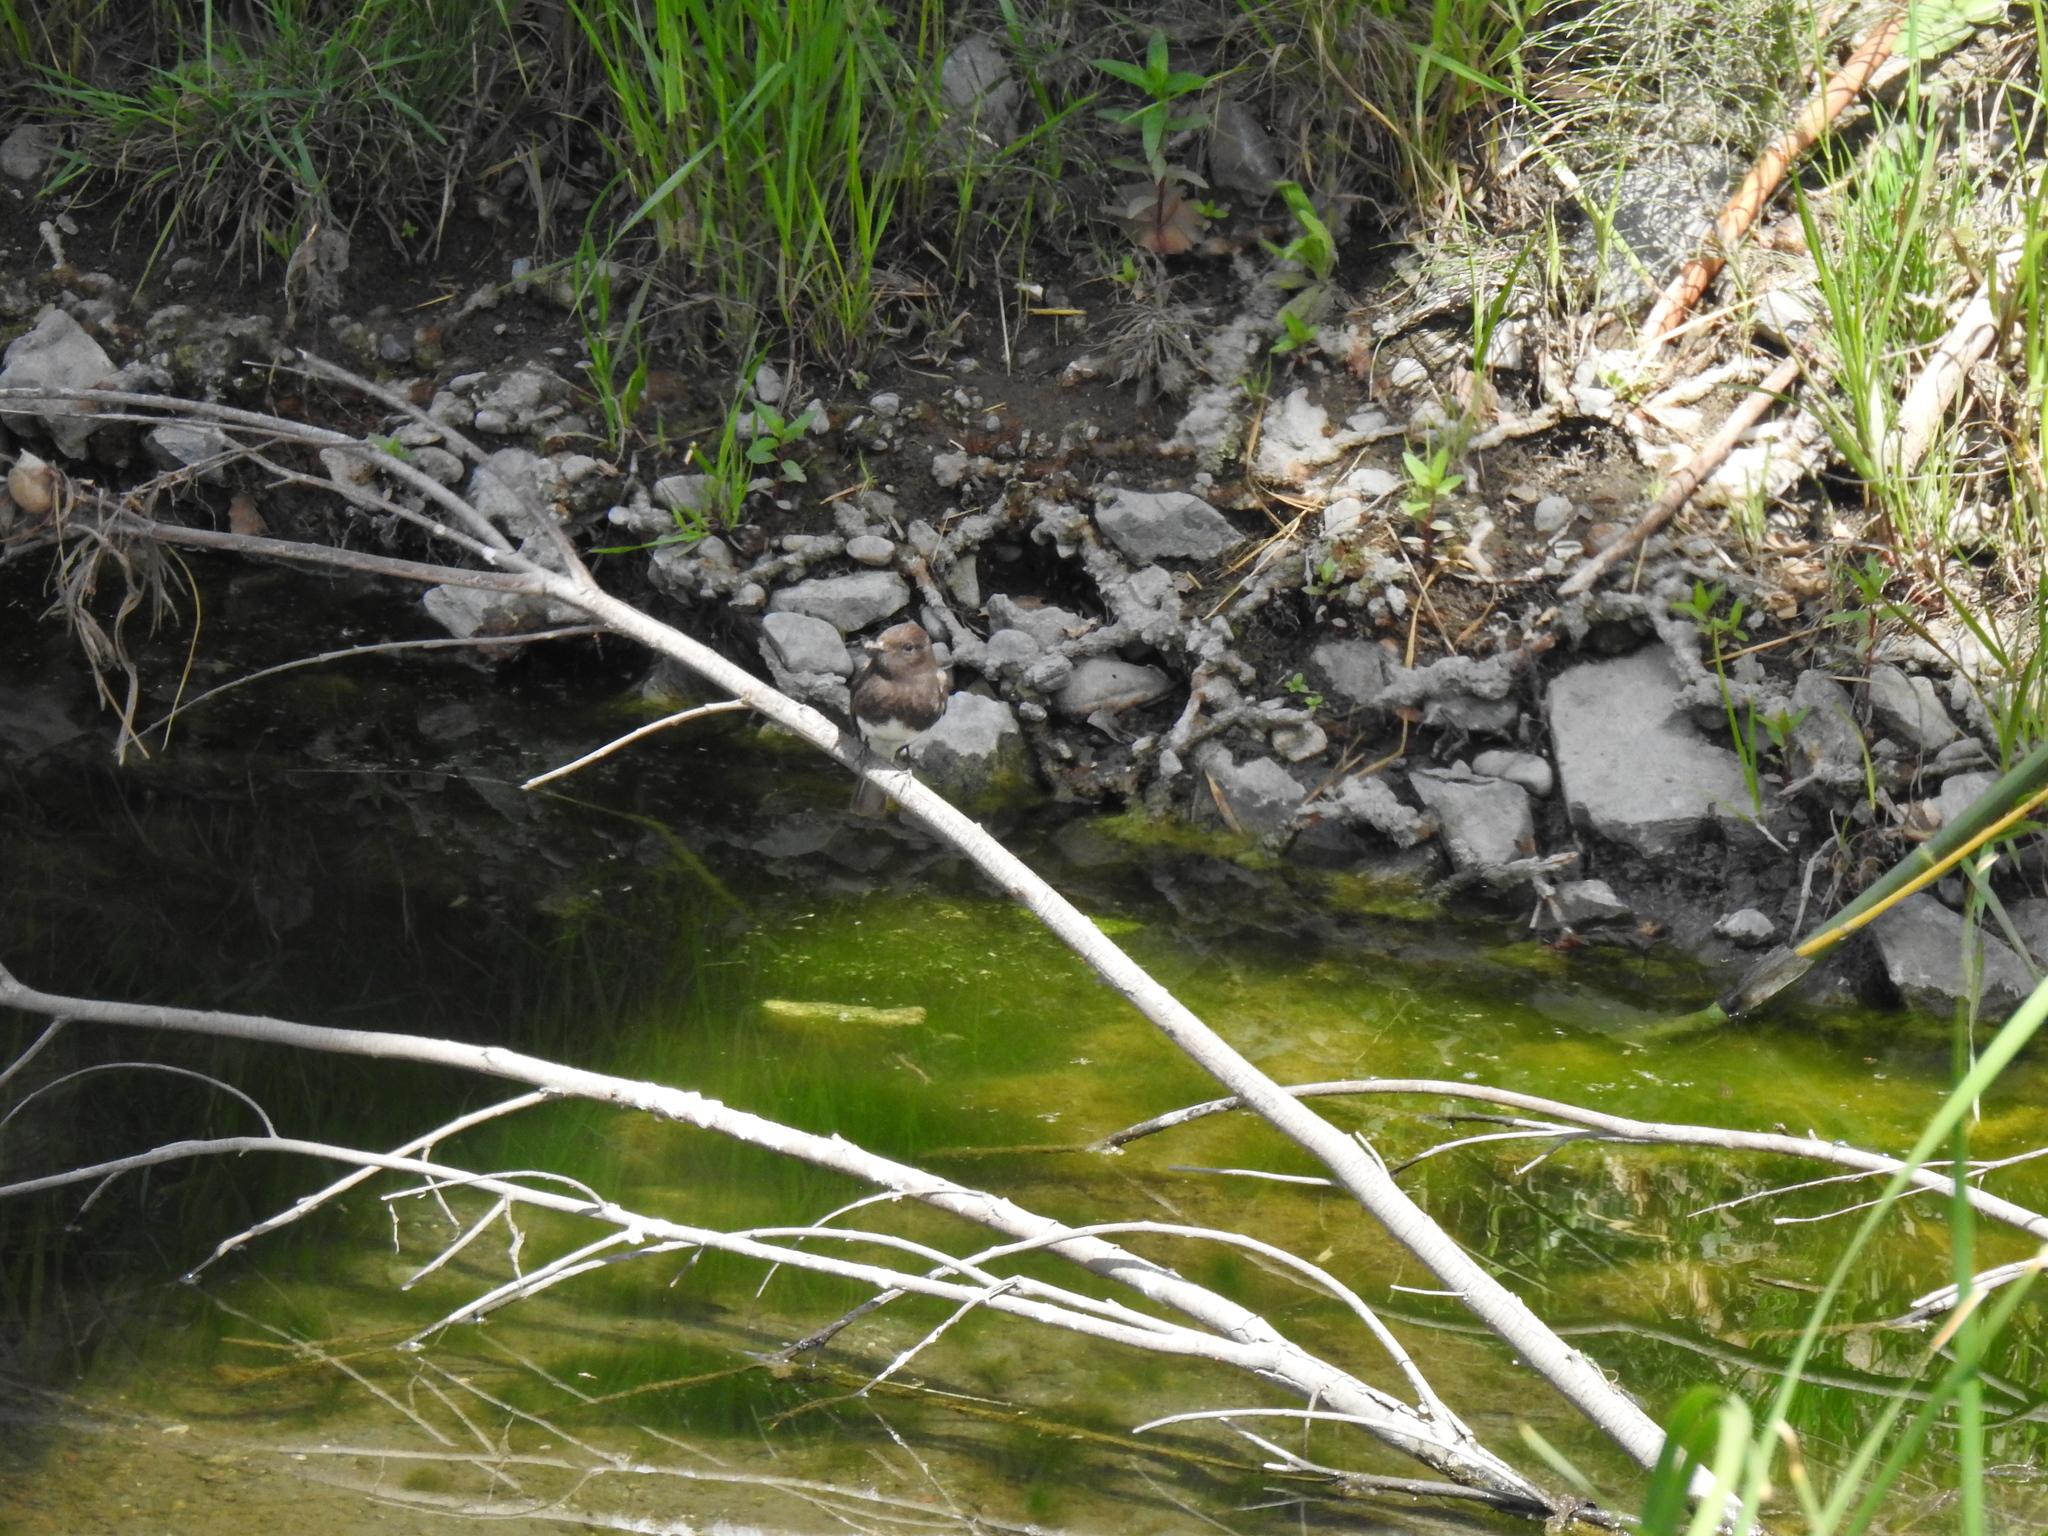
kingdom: Animalia
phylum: Chordata
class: Aves
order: Passeriformes
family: Tyrannidae
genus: Sayornis
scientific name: Sayornis nigricans
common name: Black phoebe
